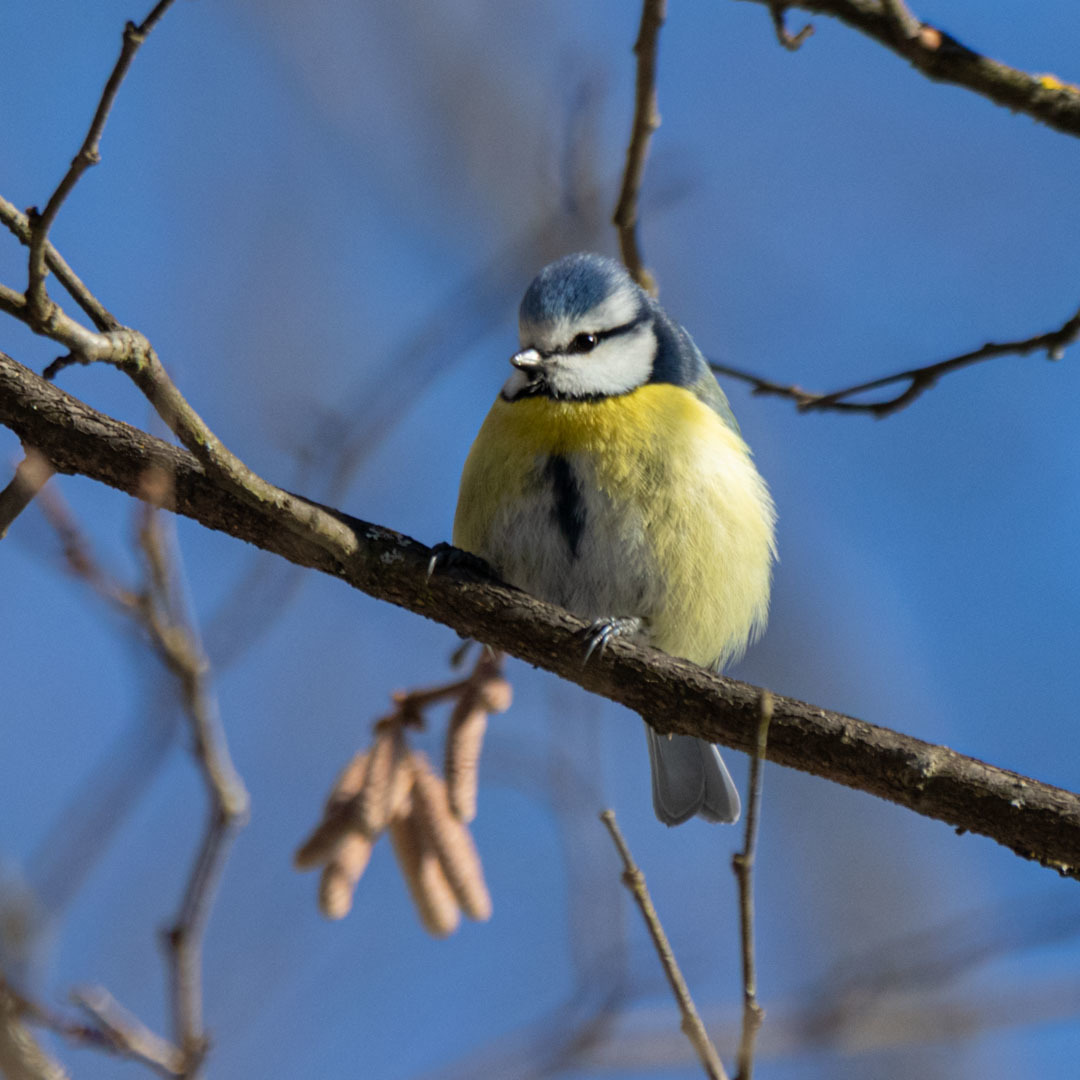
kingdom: Animalia
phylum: Chordata
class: Aves
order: Passeriformes
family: Paridae
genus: Cyanistes
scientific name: Cyanistes caeruleus
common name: Eurasian blue tit
